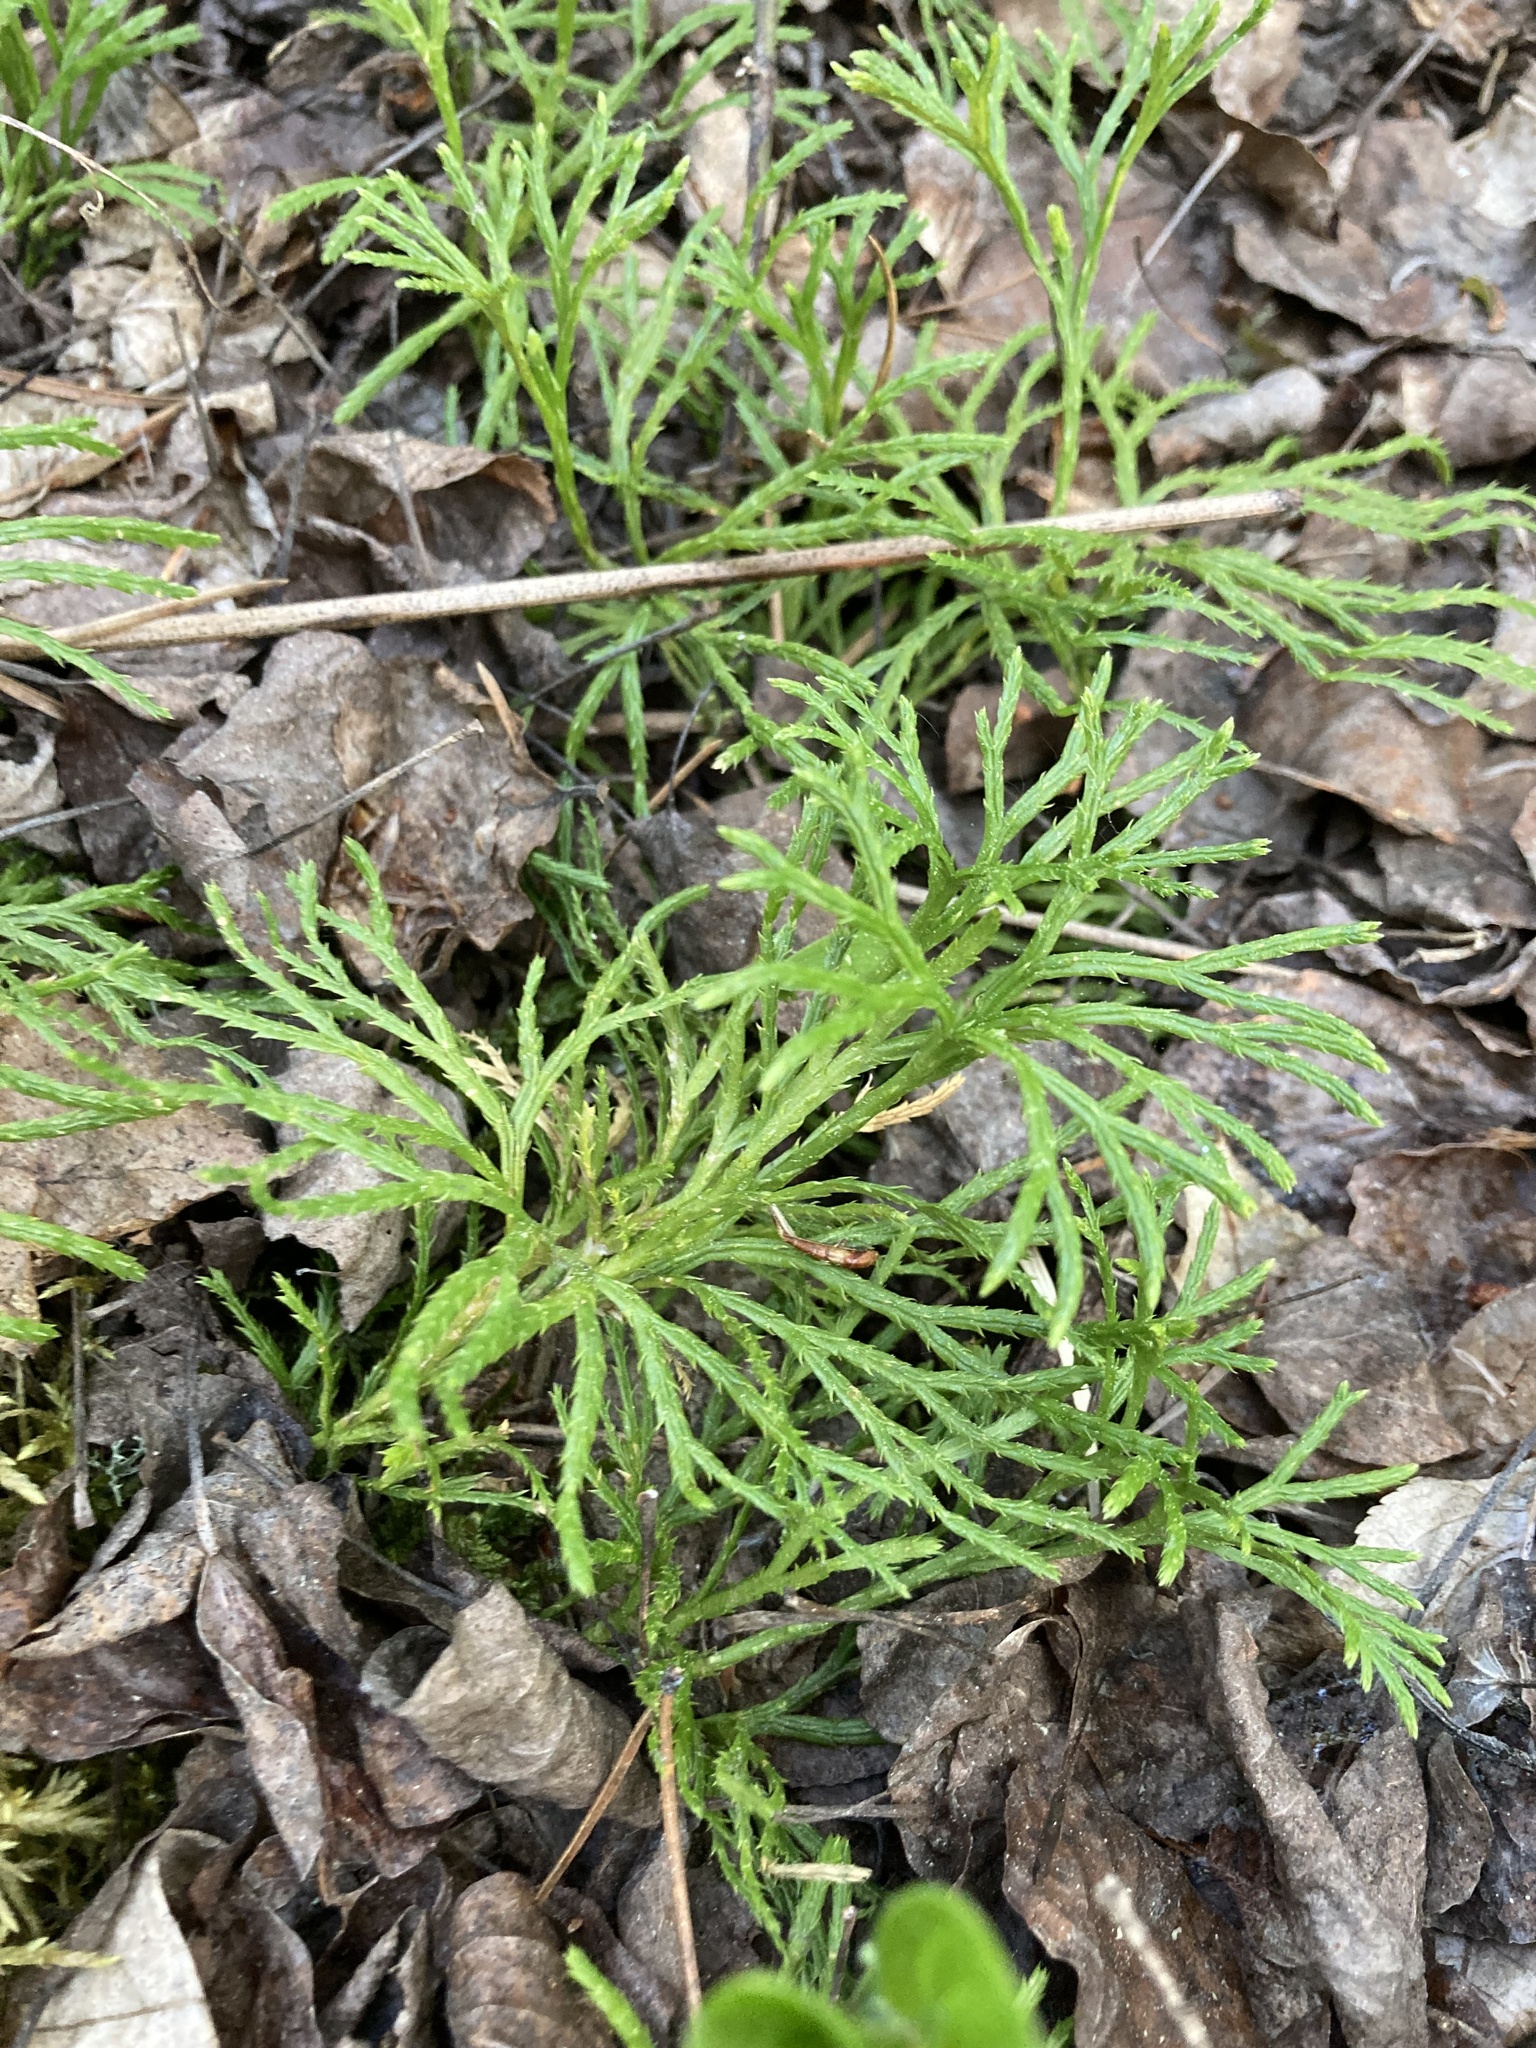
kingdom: Plantae
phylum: Tracheophyta
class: Lycopodiopsida
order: Lycopodiales
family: Lycopodiaceae
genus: Diphasiastrum
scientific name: Diphasiastrum complanatum
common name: Northern running-pine
